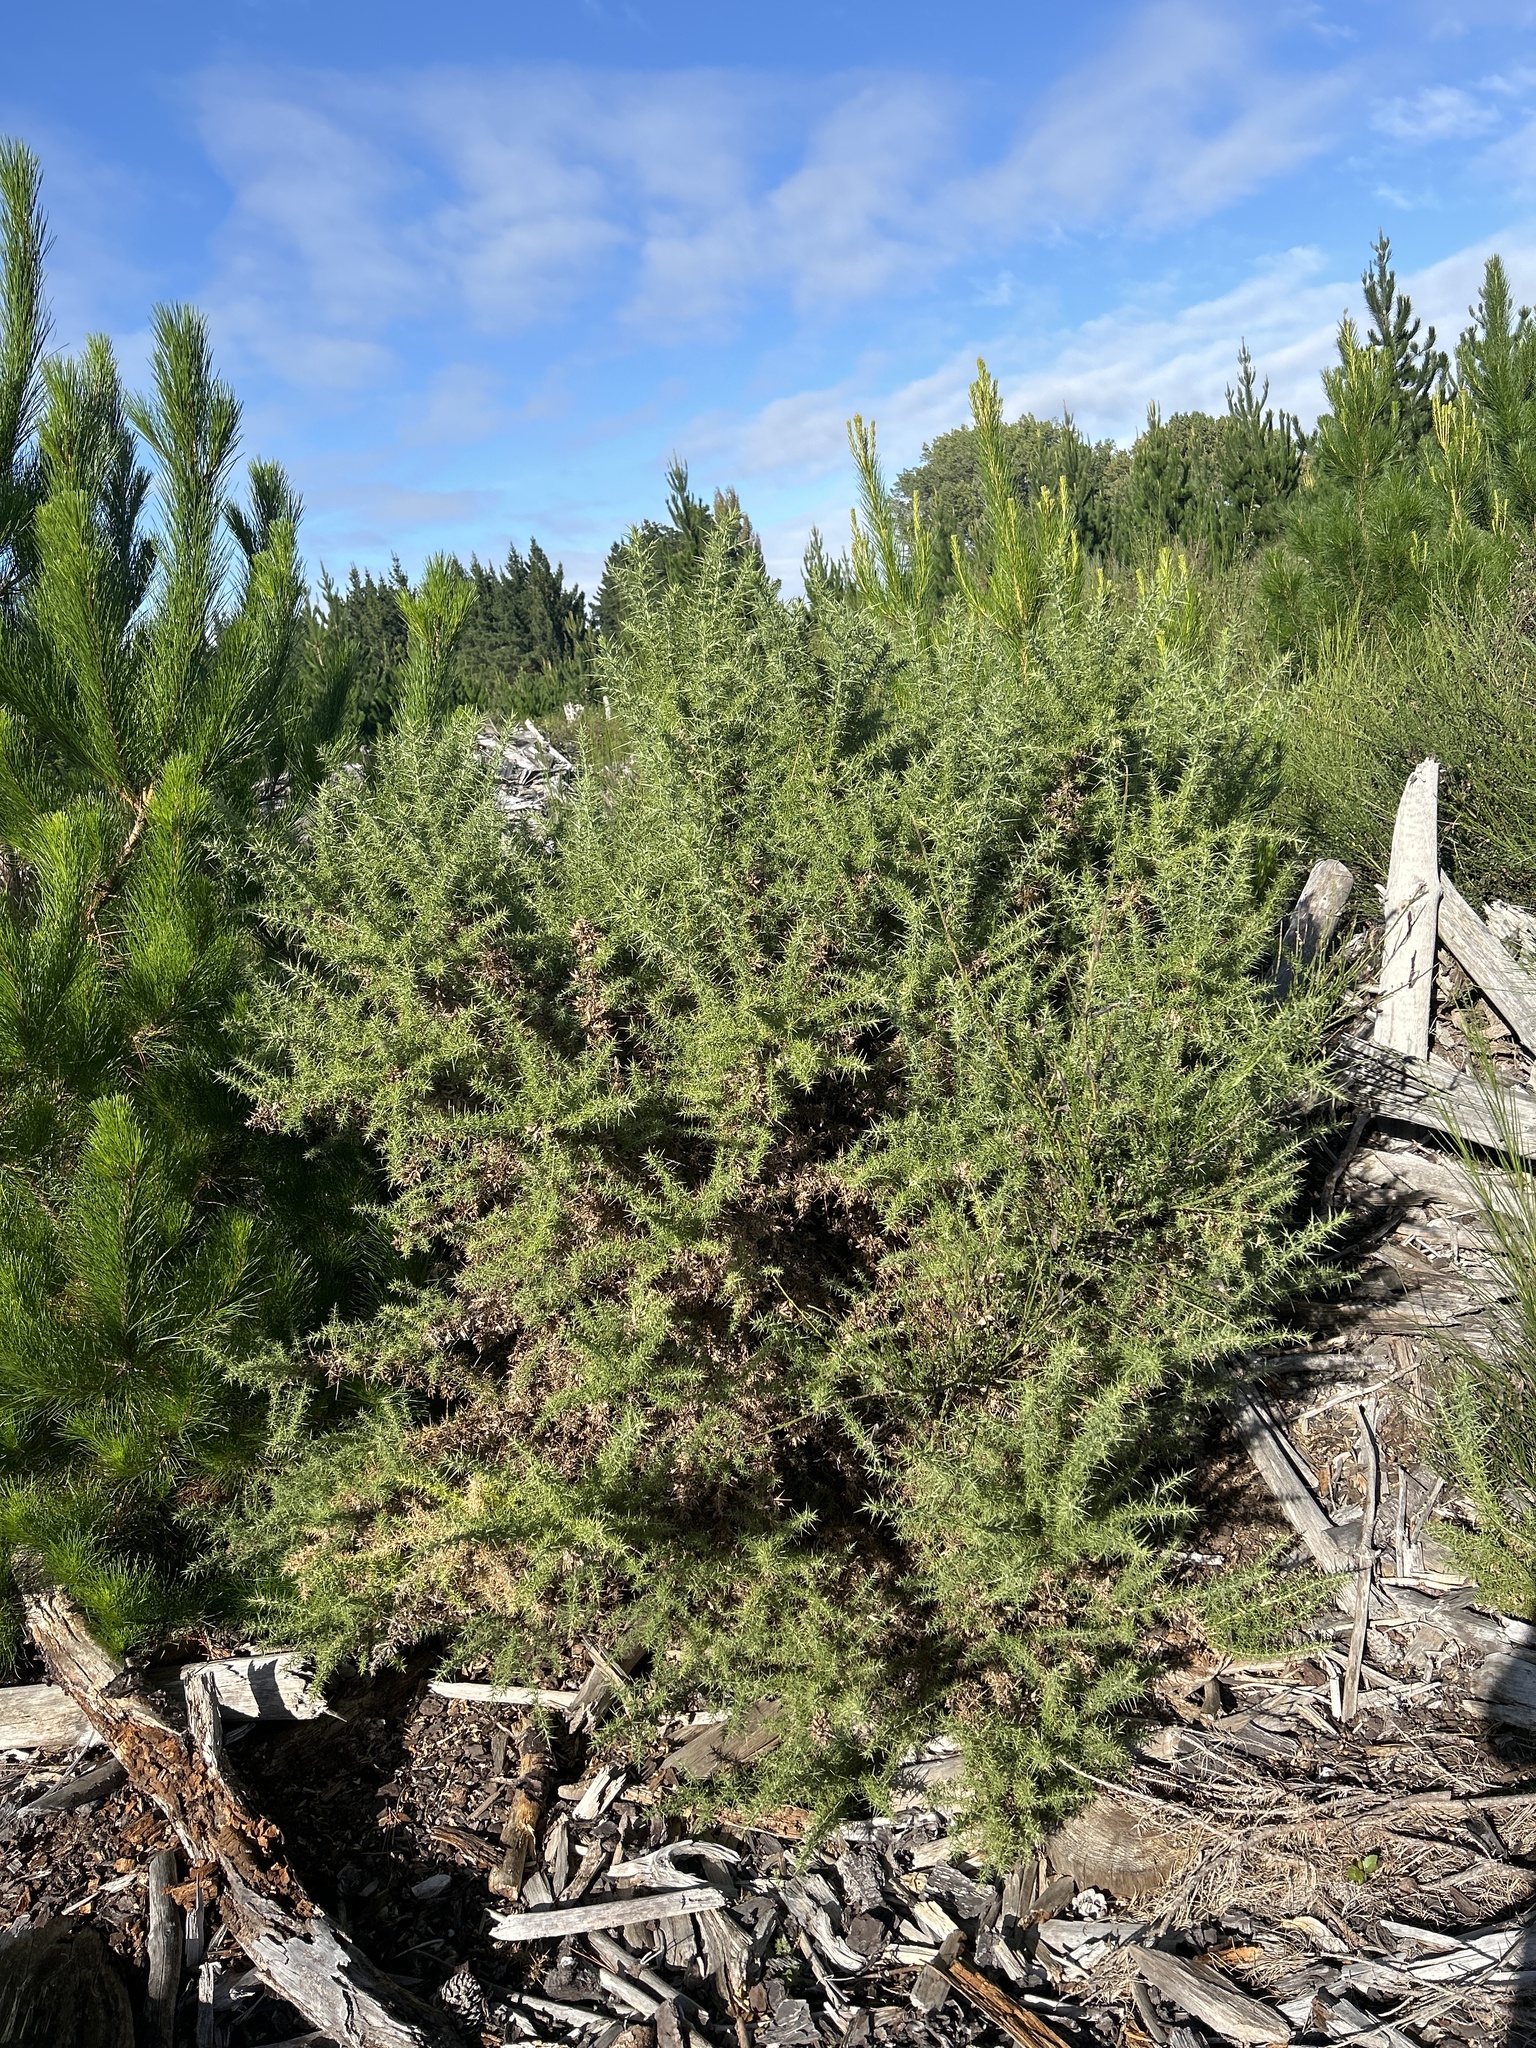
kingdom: Plantae
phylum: Tracheophyta
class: Magnoliopsida
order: Fabales
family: Fabaceae
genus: Ulex
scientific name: Ulex europaeus
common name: Common gorse
